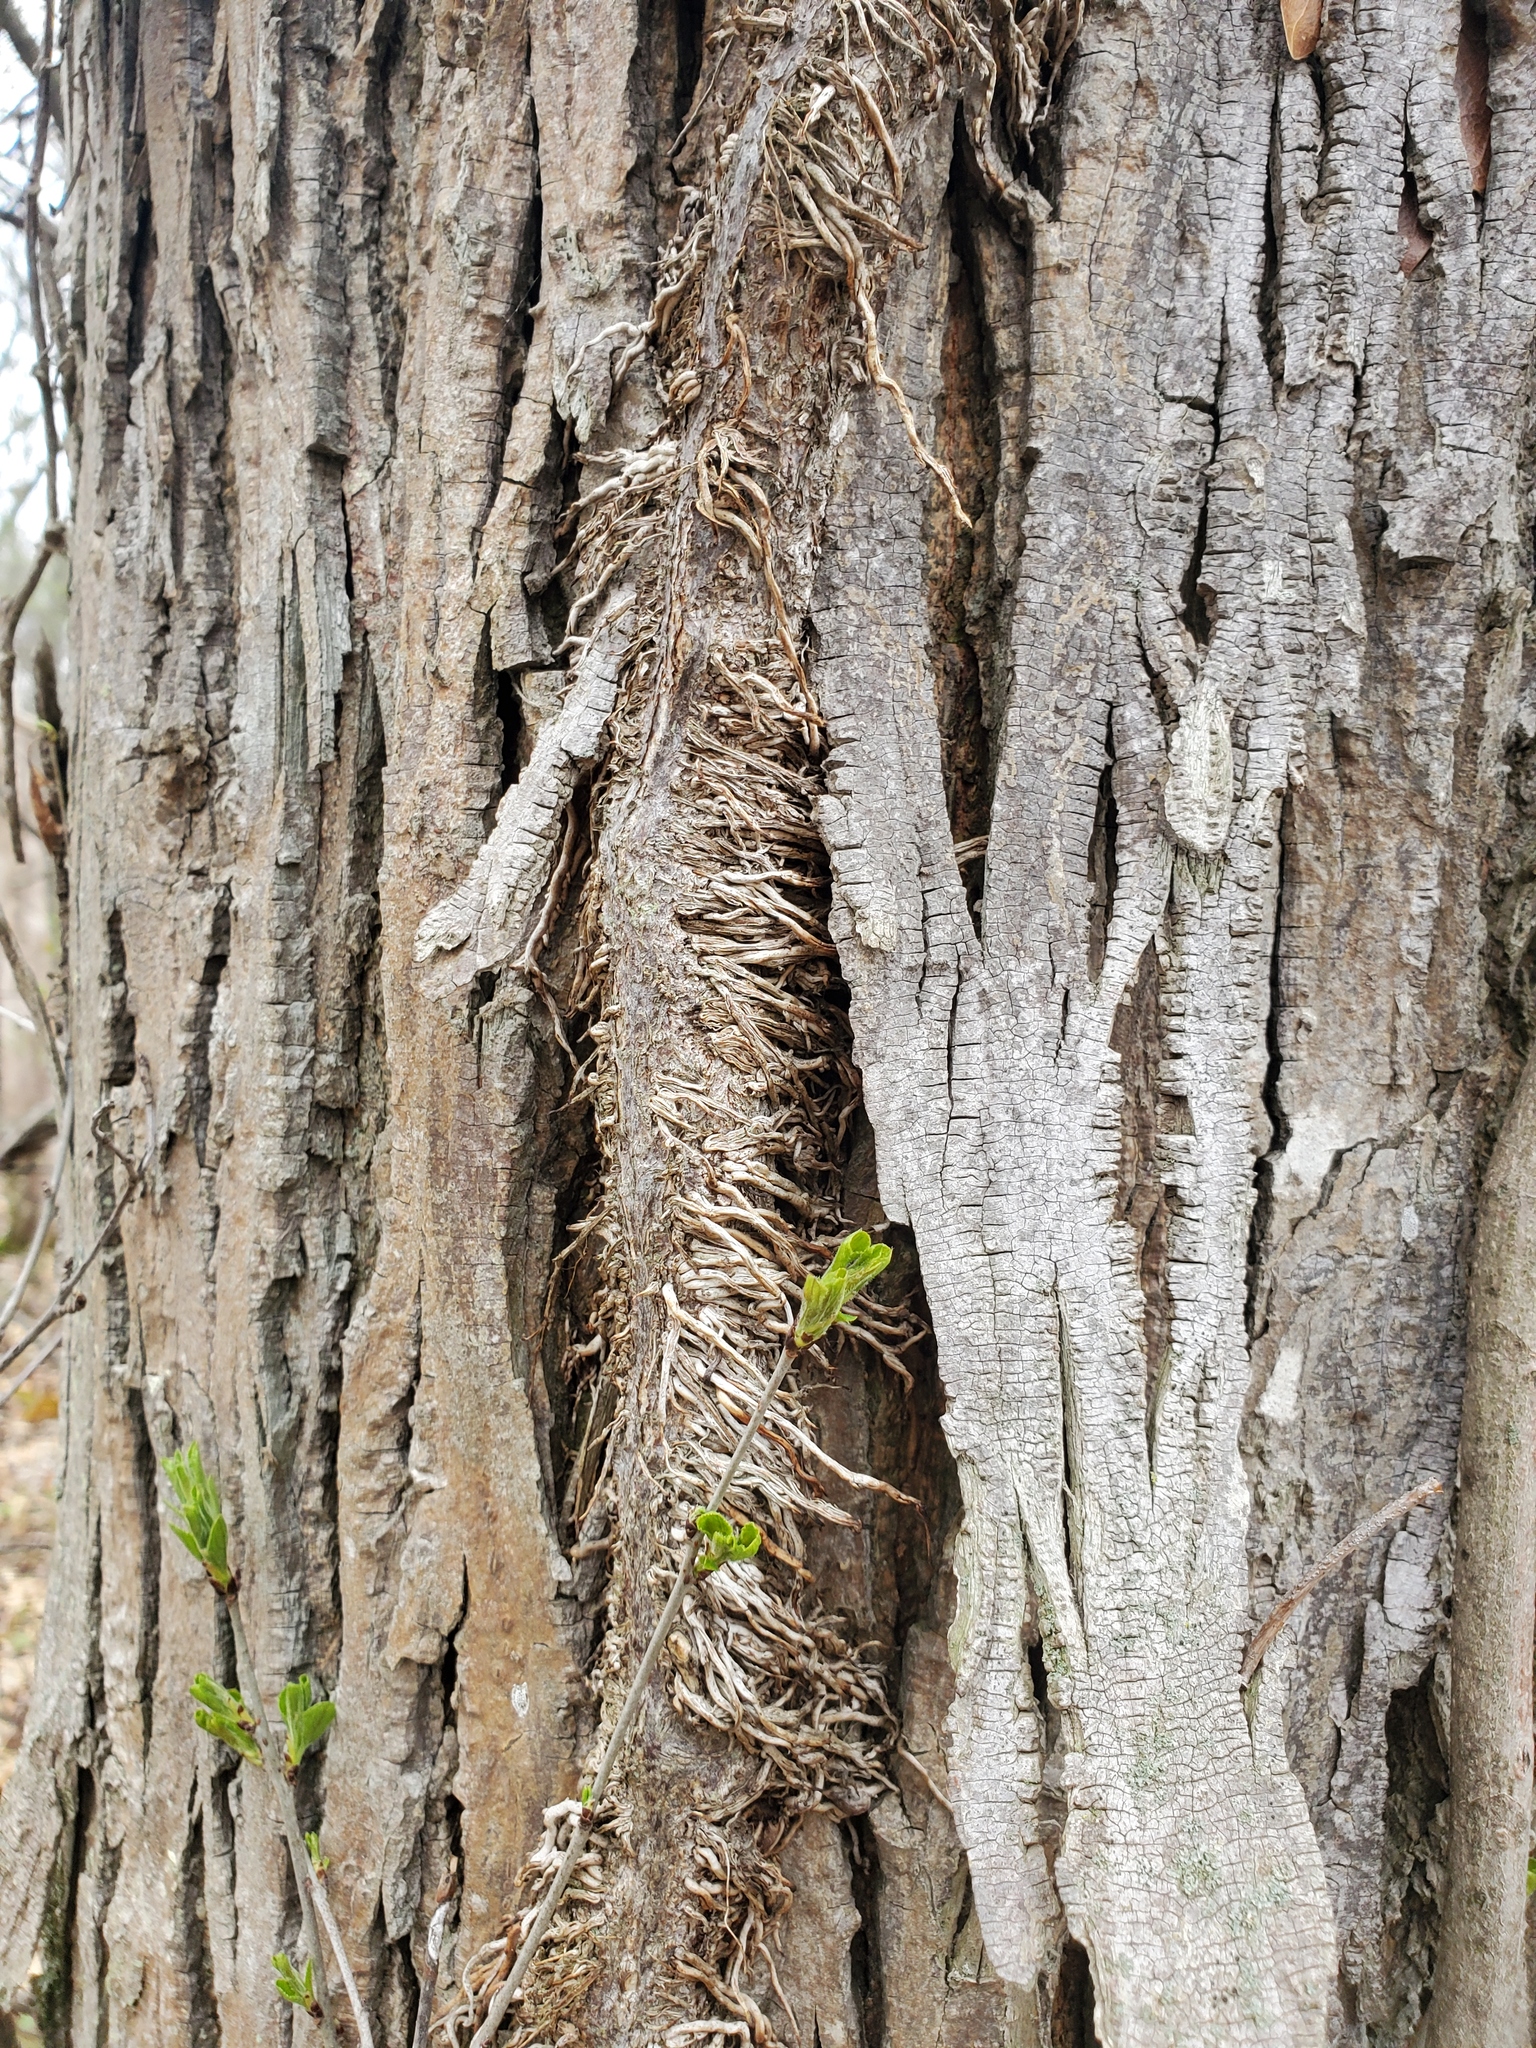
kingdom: Plantae
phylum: Tracheophyta
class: Magnoliopsida
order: Vitales
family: Vitaceae
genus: Parthenocissus
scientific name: Parthenocissus quinquefolia
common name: Virginia-creeper
